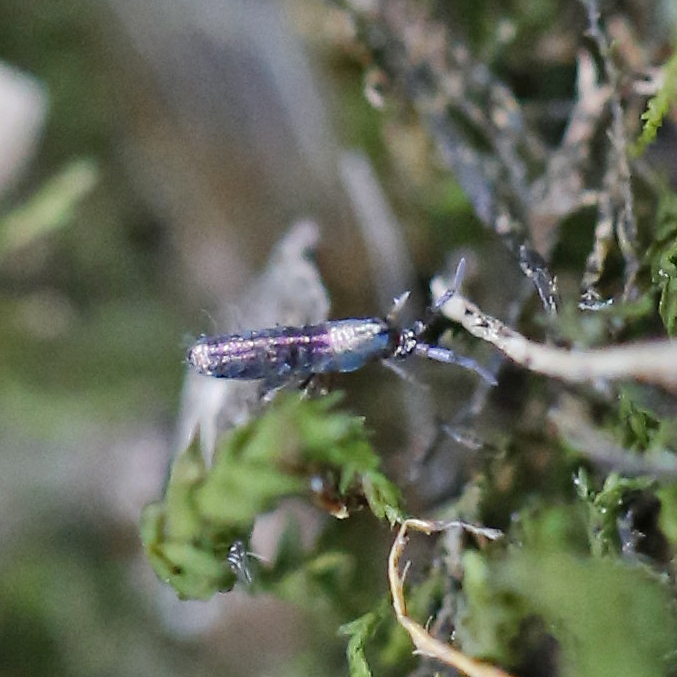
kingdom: Animalia
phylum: Arthropoda
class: Collembola
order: Entomobryomorpha
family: Entomobryidae
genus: Lepidocyrtus
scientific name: Lepidocyrtus paradoxus
